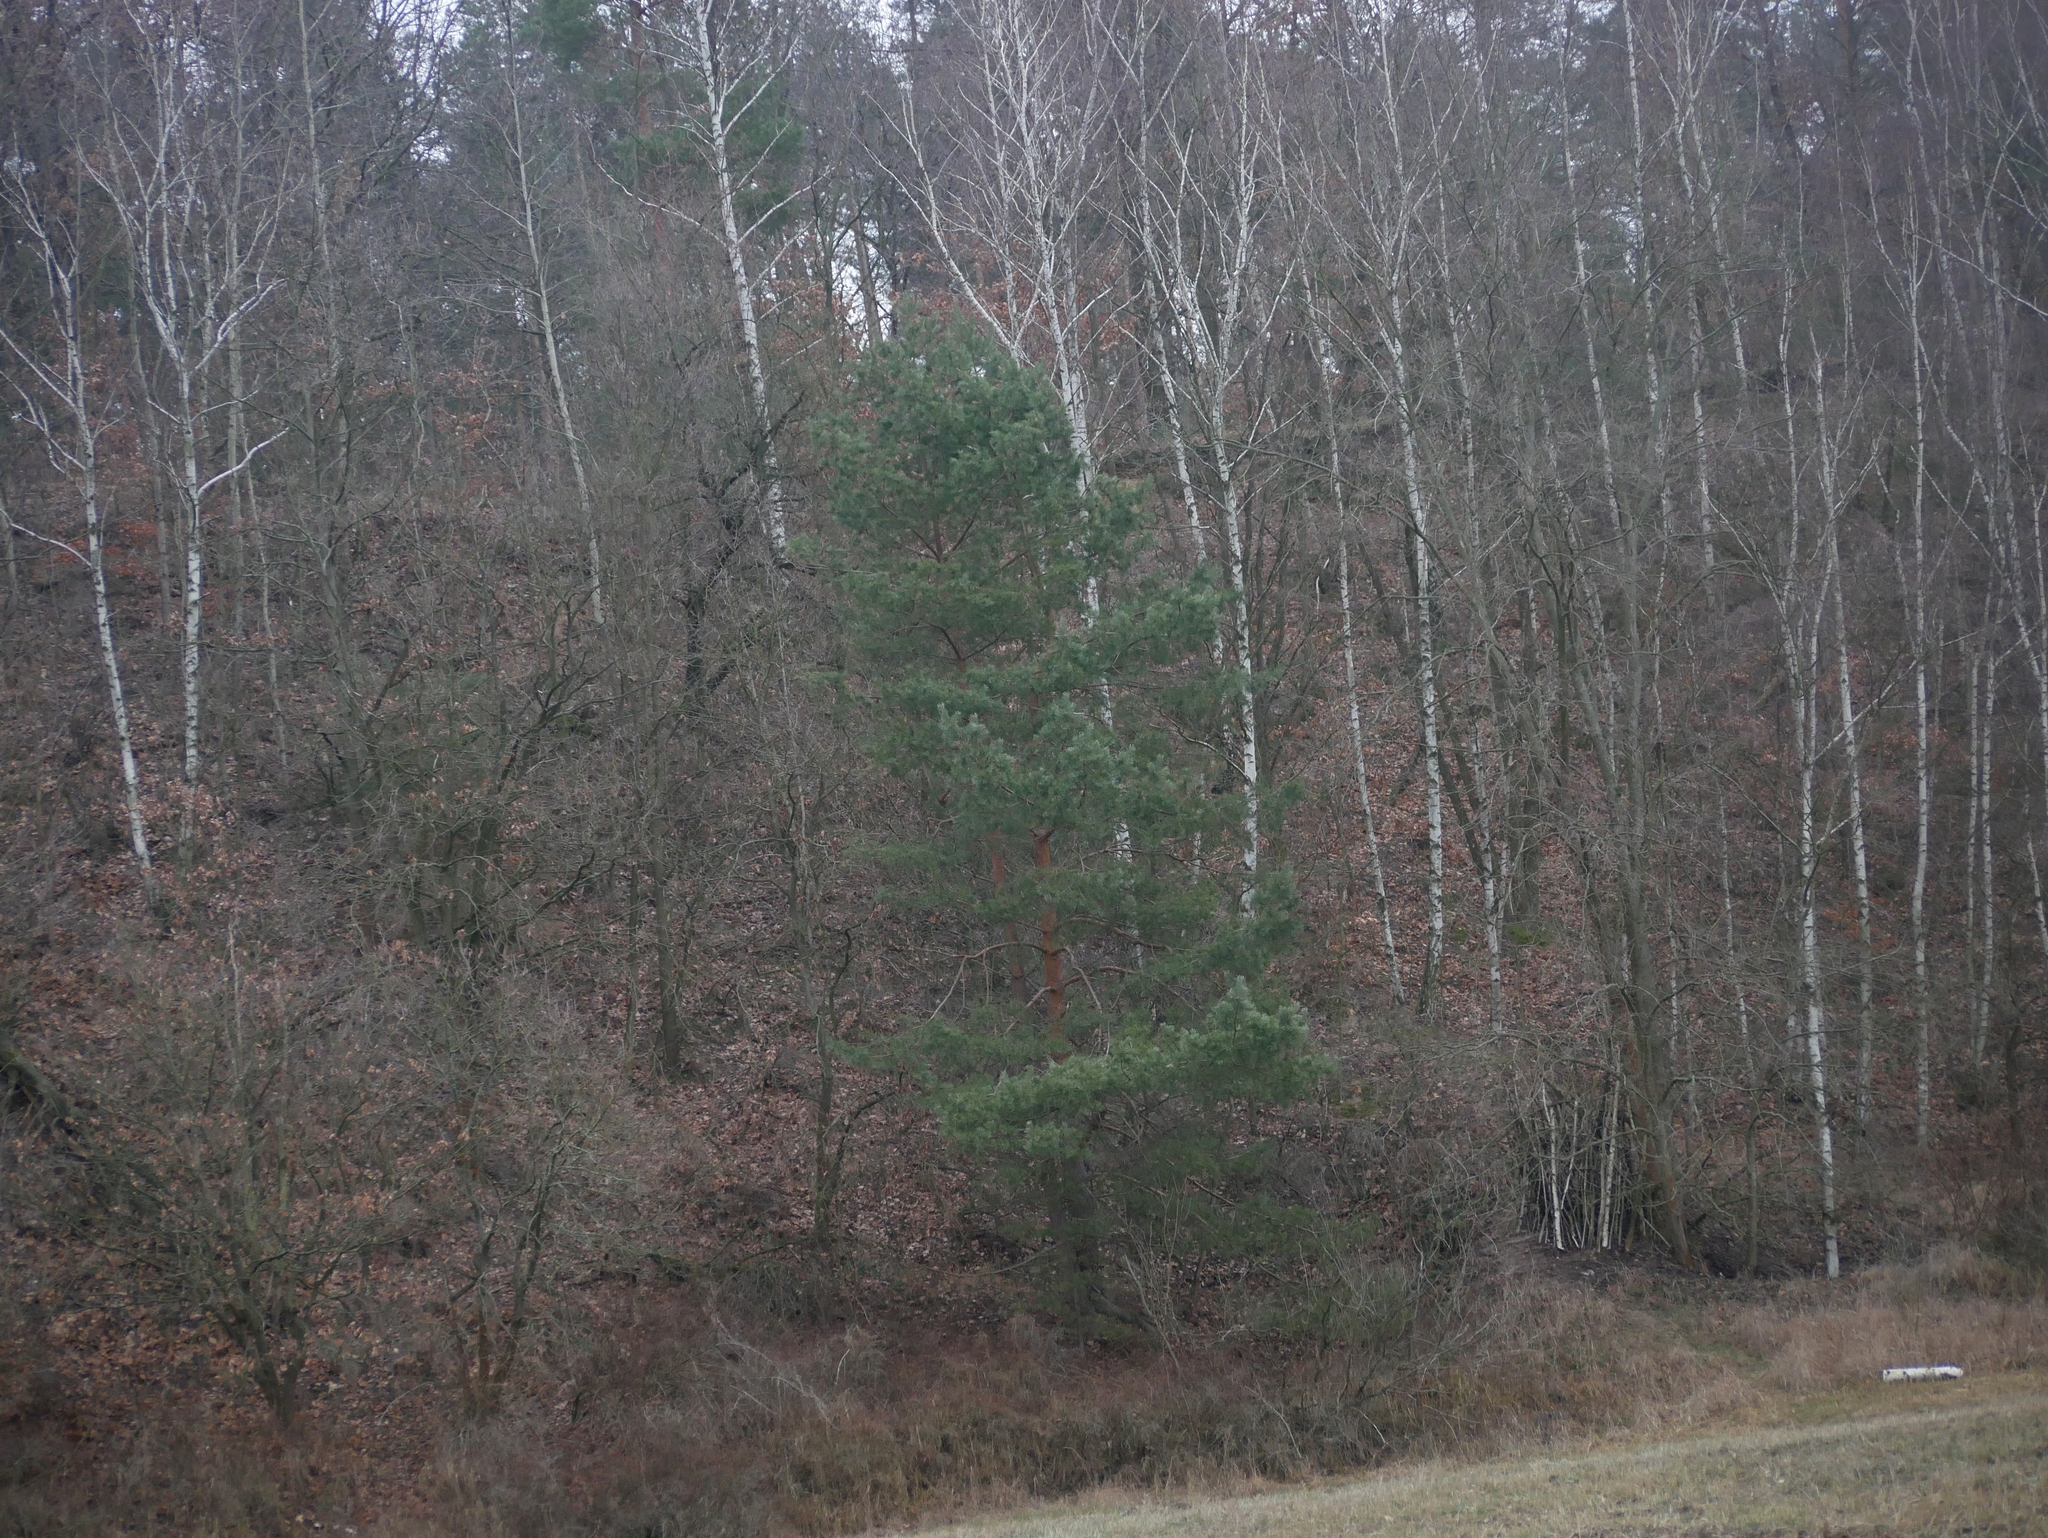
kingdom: Plantae
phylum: Tracheophyta
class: Pinopsida
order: Pinales
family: Pinaceae
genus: Pinus
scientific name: Pinus sylvestris
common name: Scots pine
